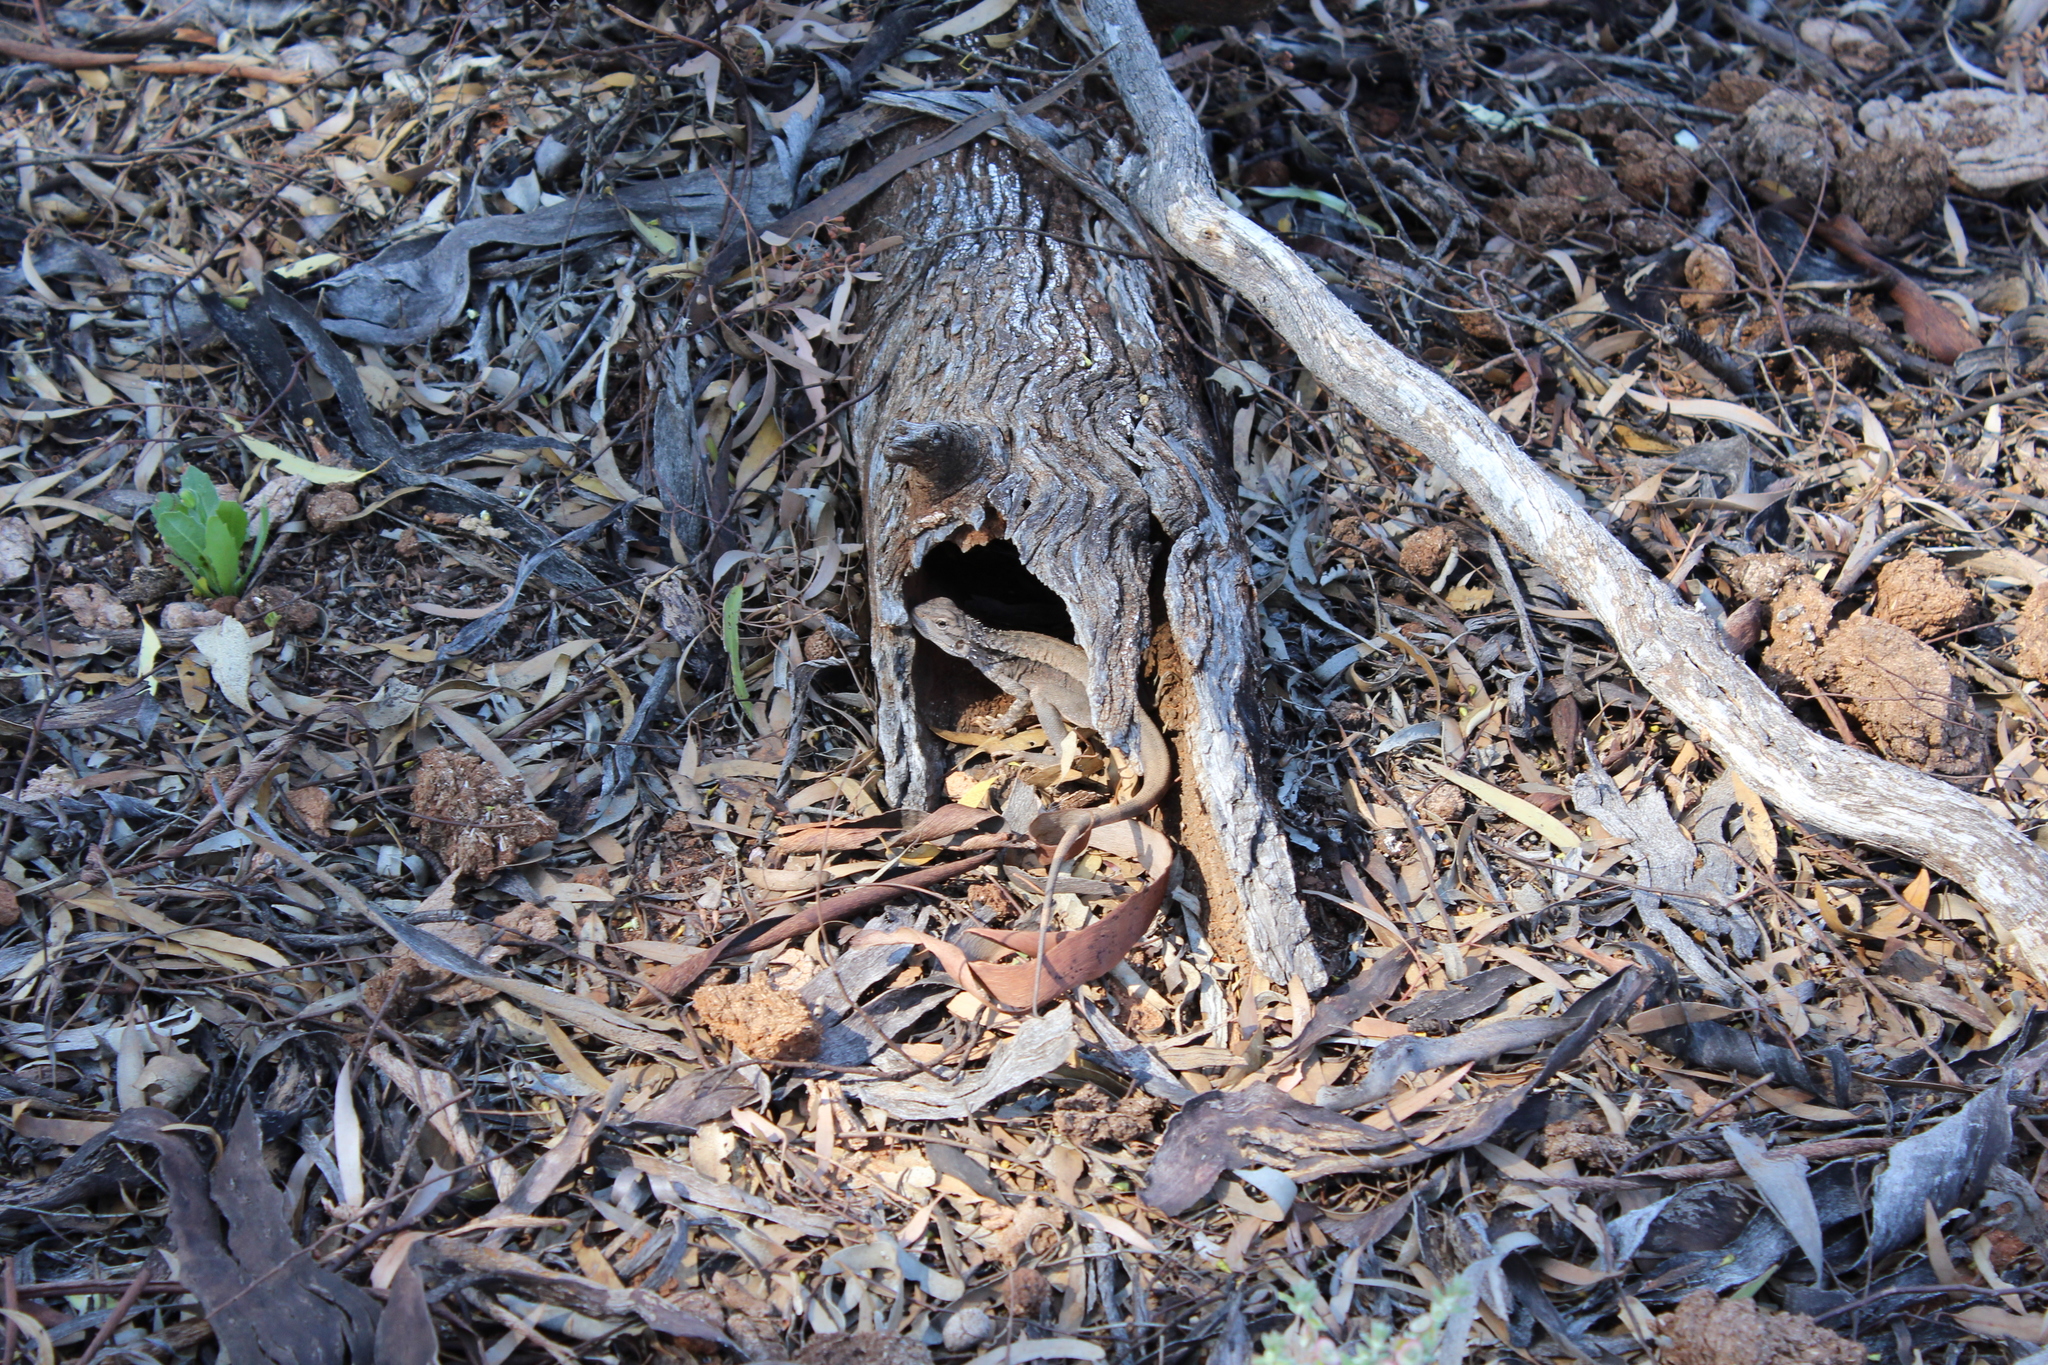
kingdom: Animalia
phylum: Chordata
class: Squamata
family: Agamidae
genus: Ctenophorus
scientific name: Ctenophorus cristatus
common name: Crested dragon
